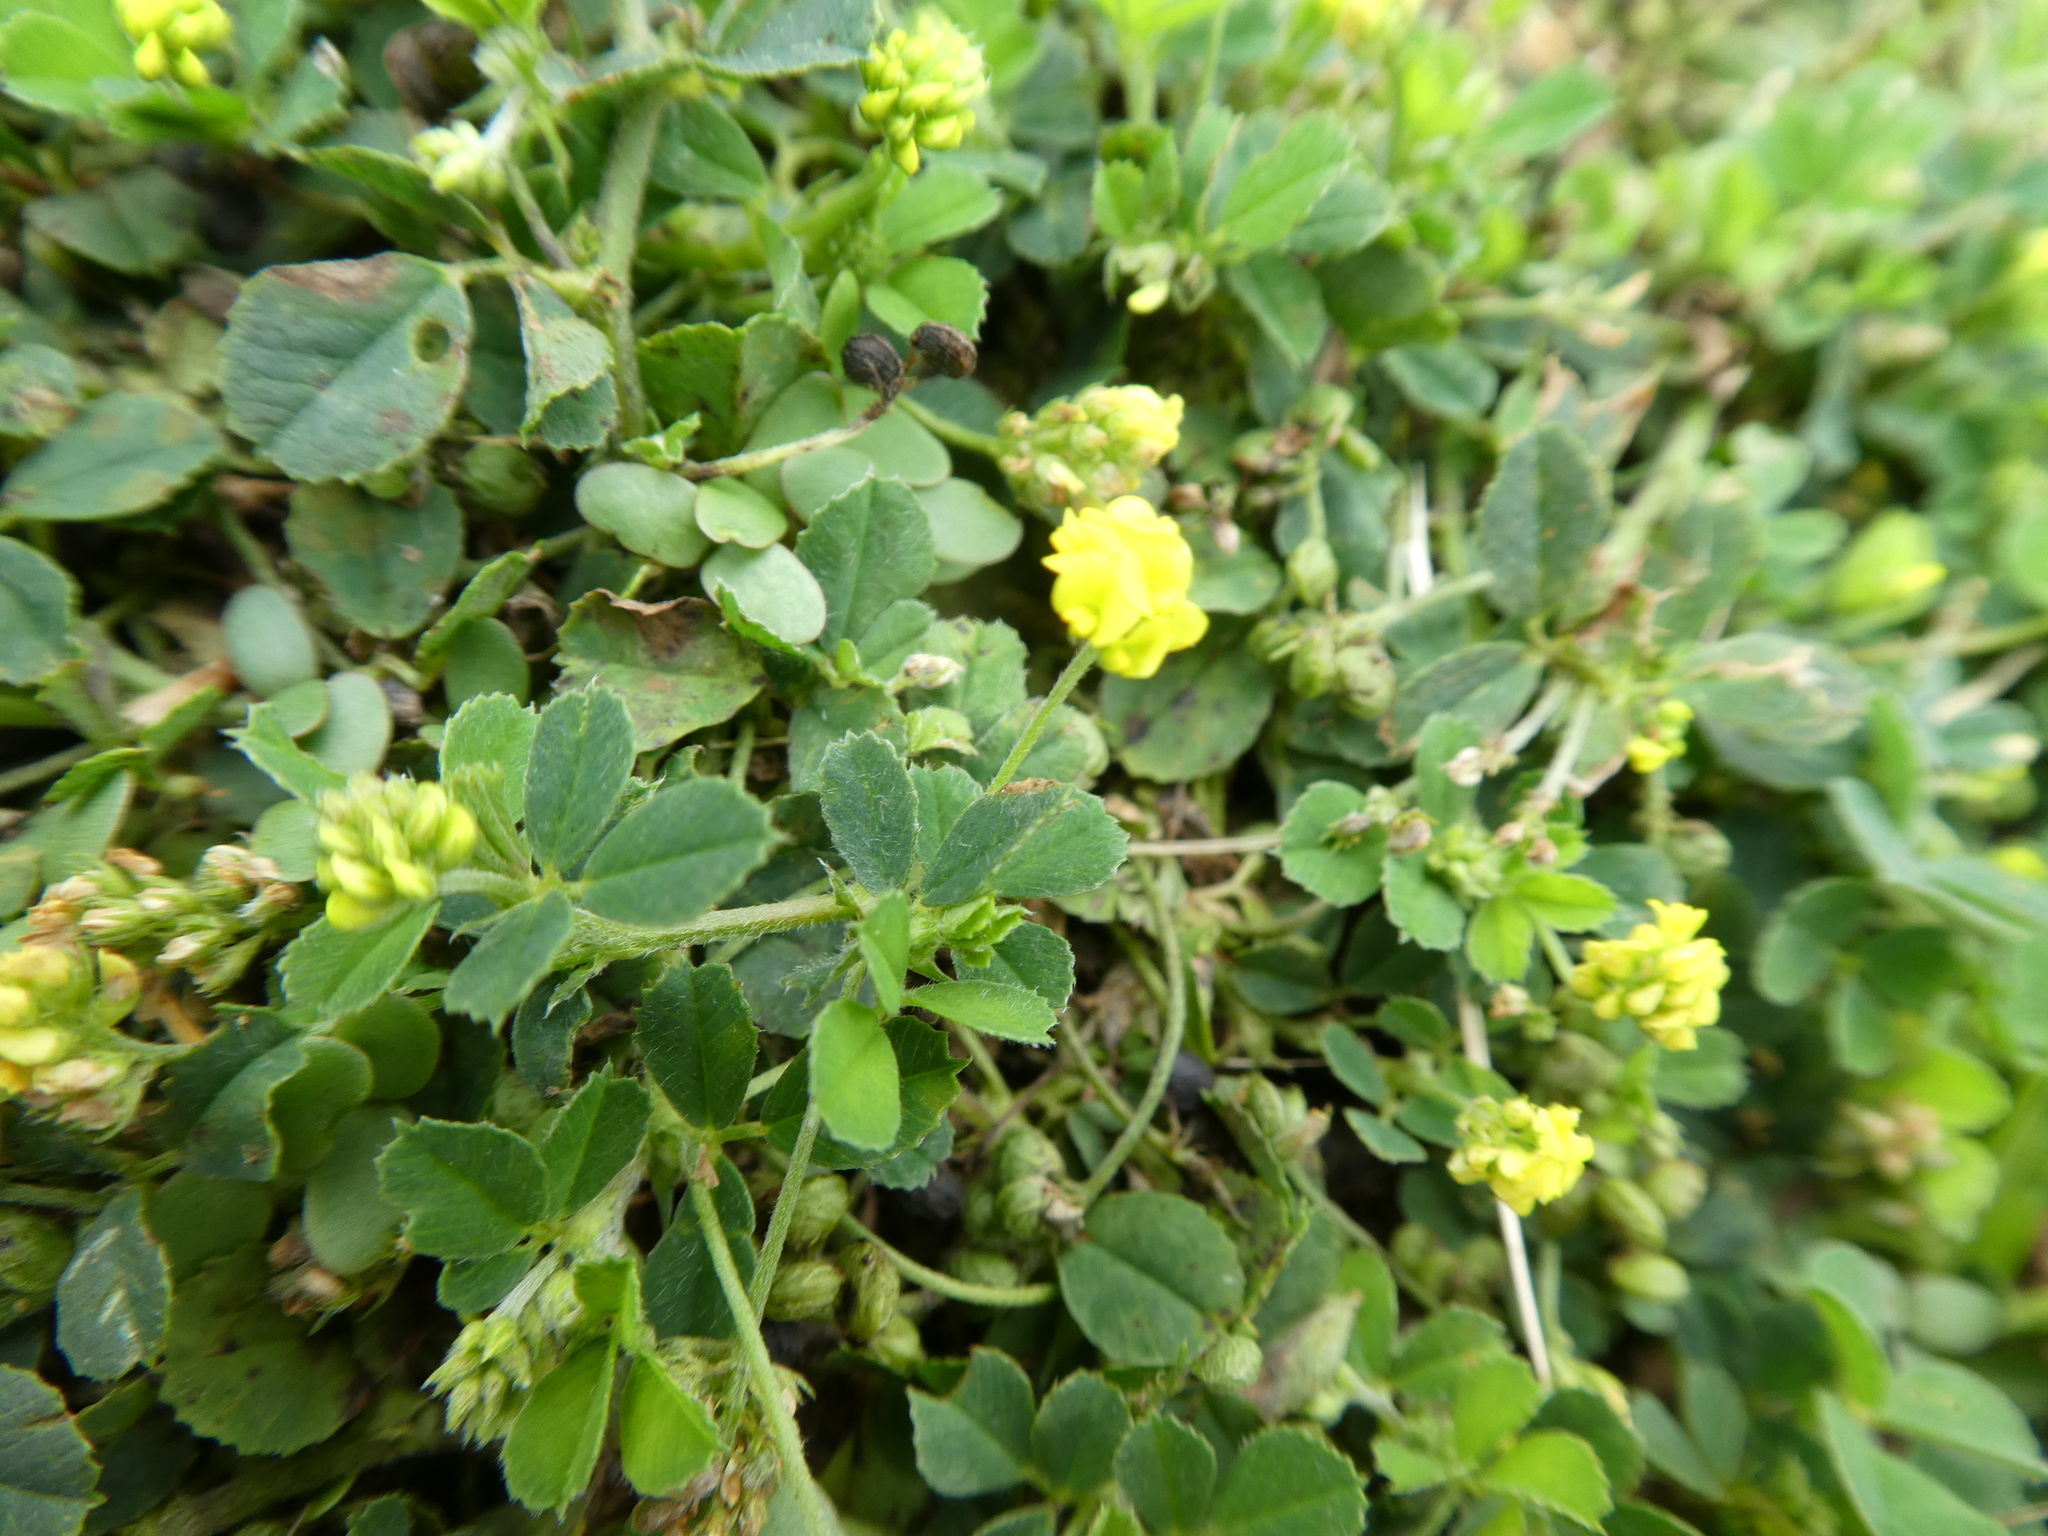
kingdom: Plantae
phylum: Tracheophyta
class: Magnoliopsida
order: Fabales
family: Fabaceae
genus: Medicago
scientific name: Medicago lupulina
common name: Black medick
